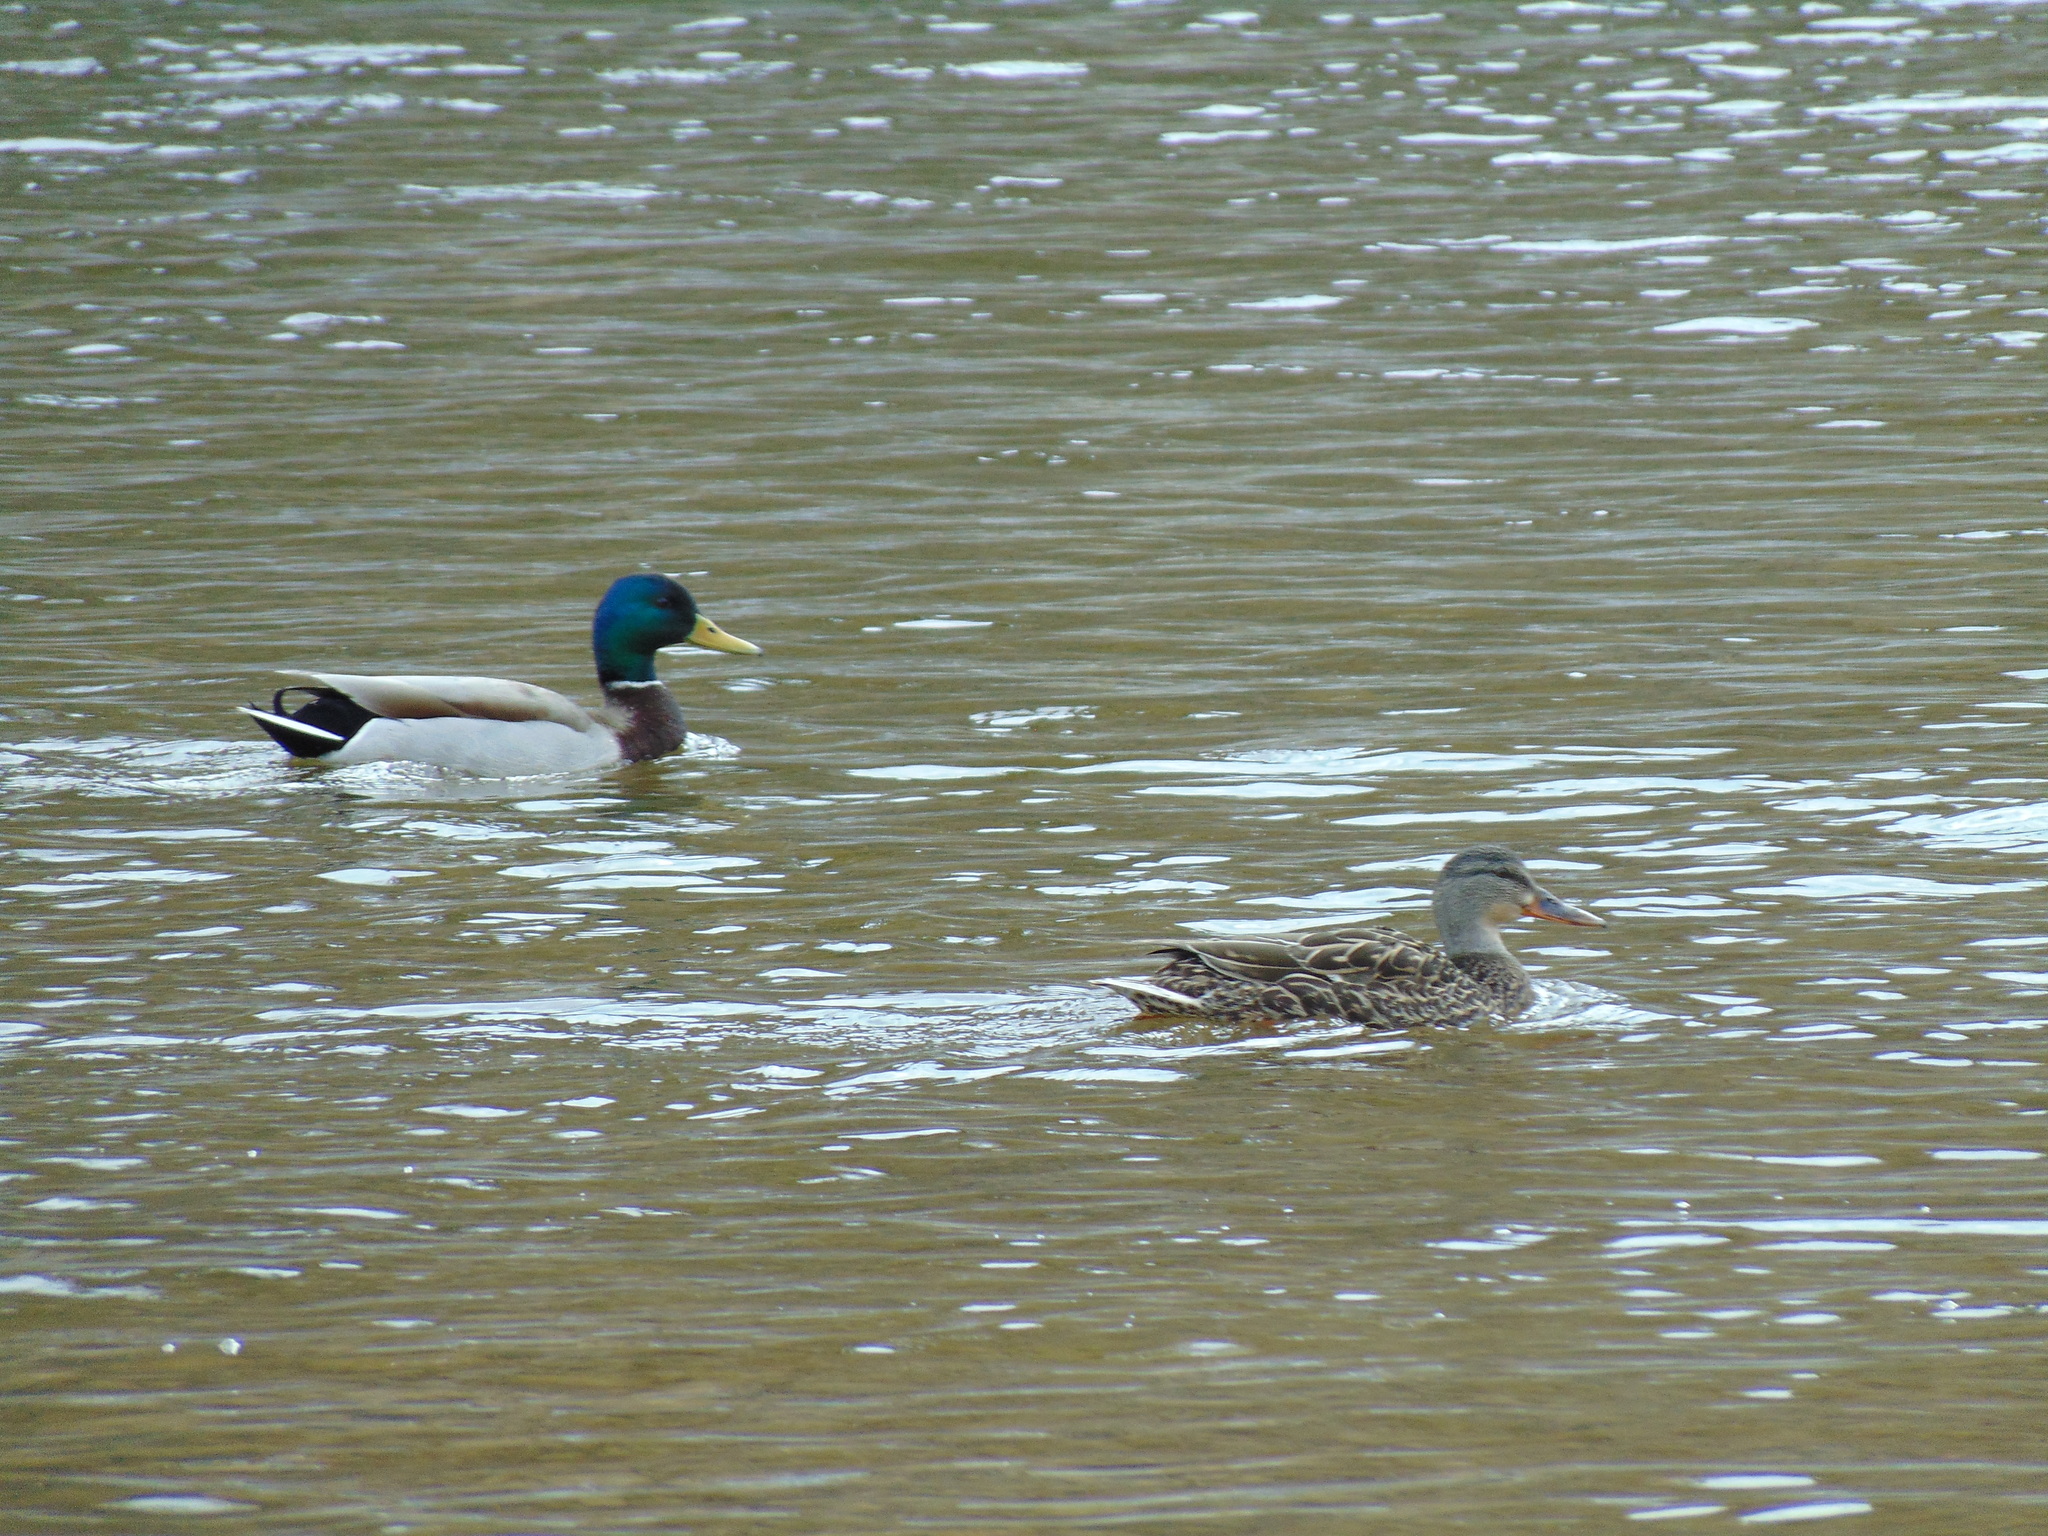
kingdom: Animalia
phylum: Chordata
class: Aves
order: Anseriformes
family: Anatidae
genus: Anas
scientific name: Anas platyrhynchos
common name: Mallard
